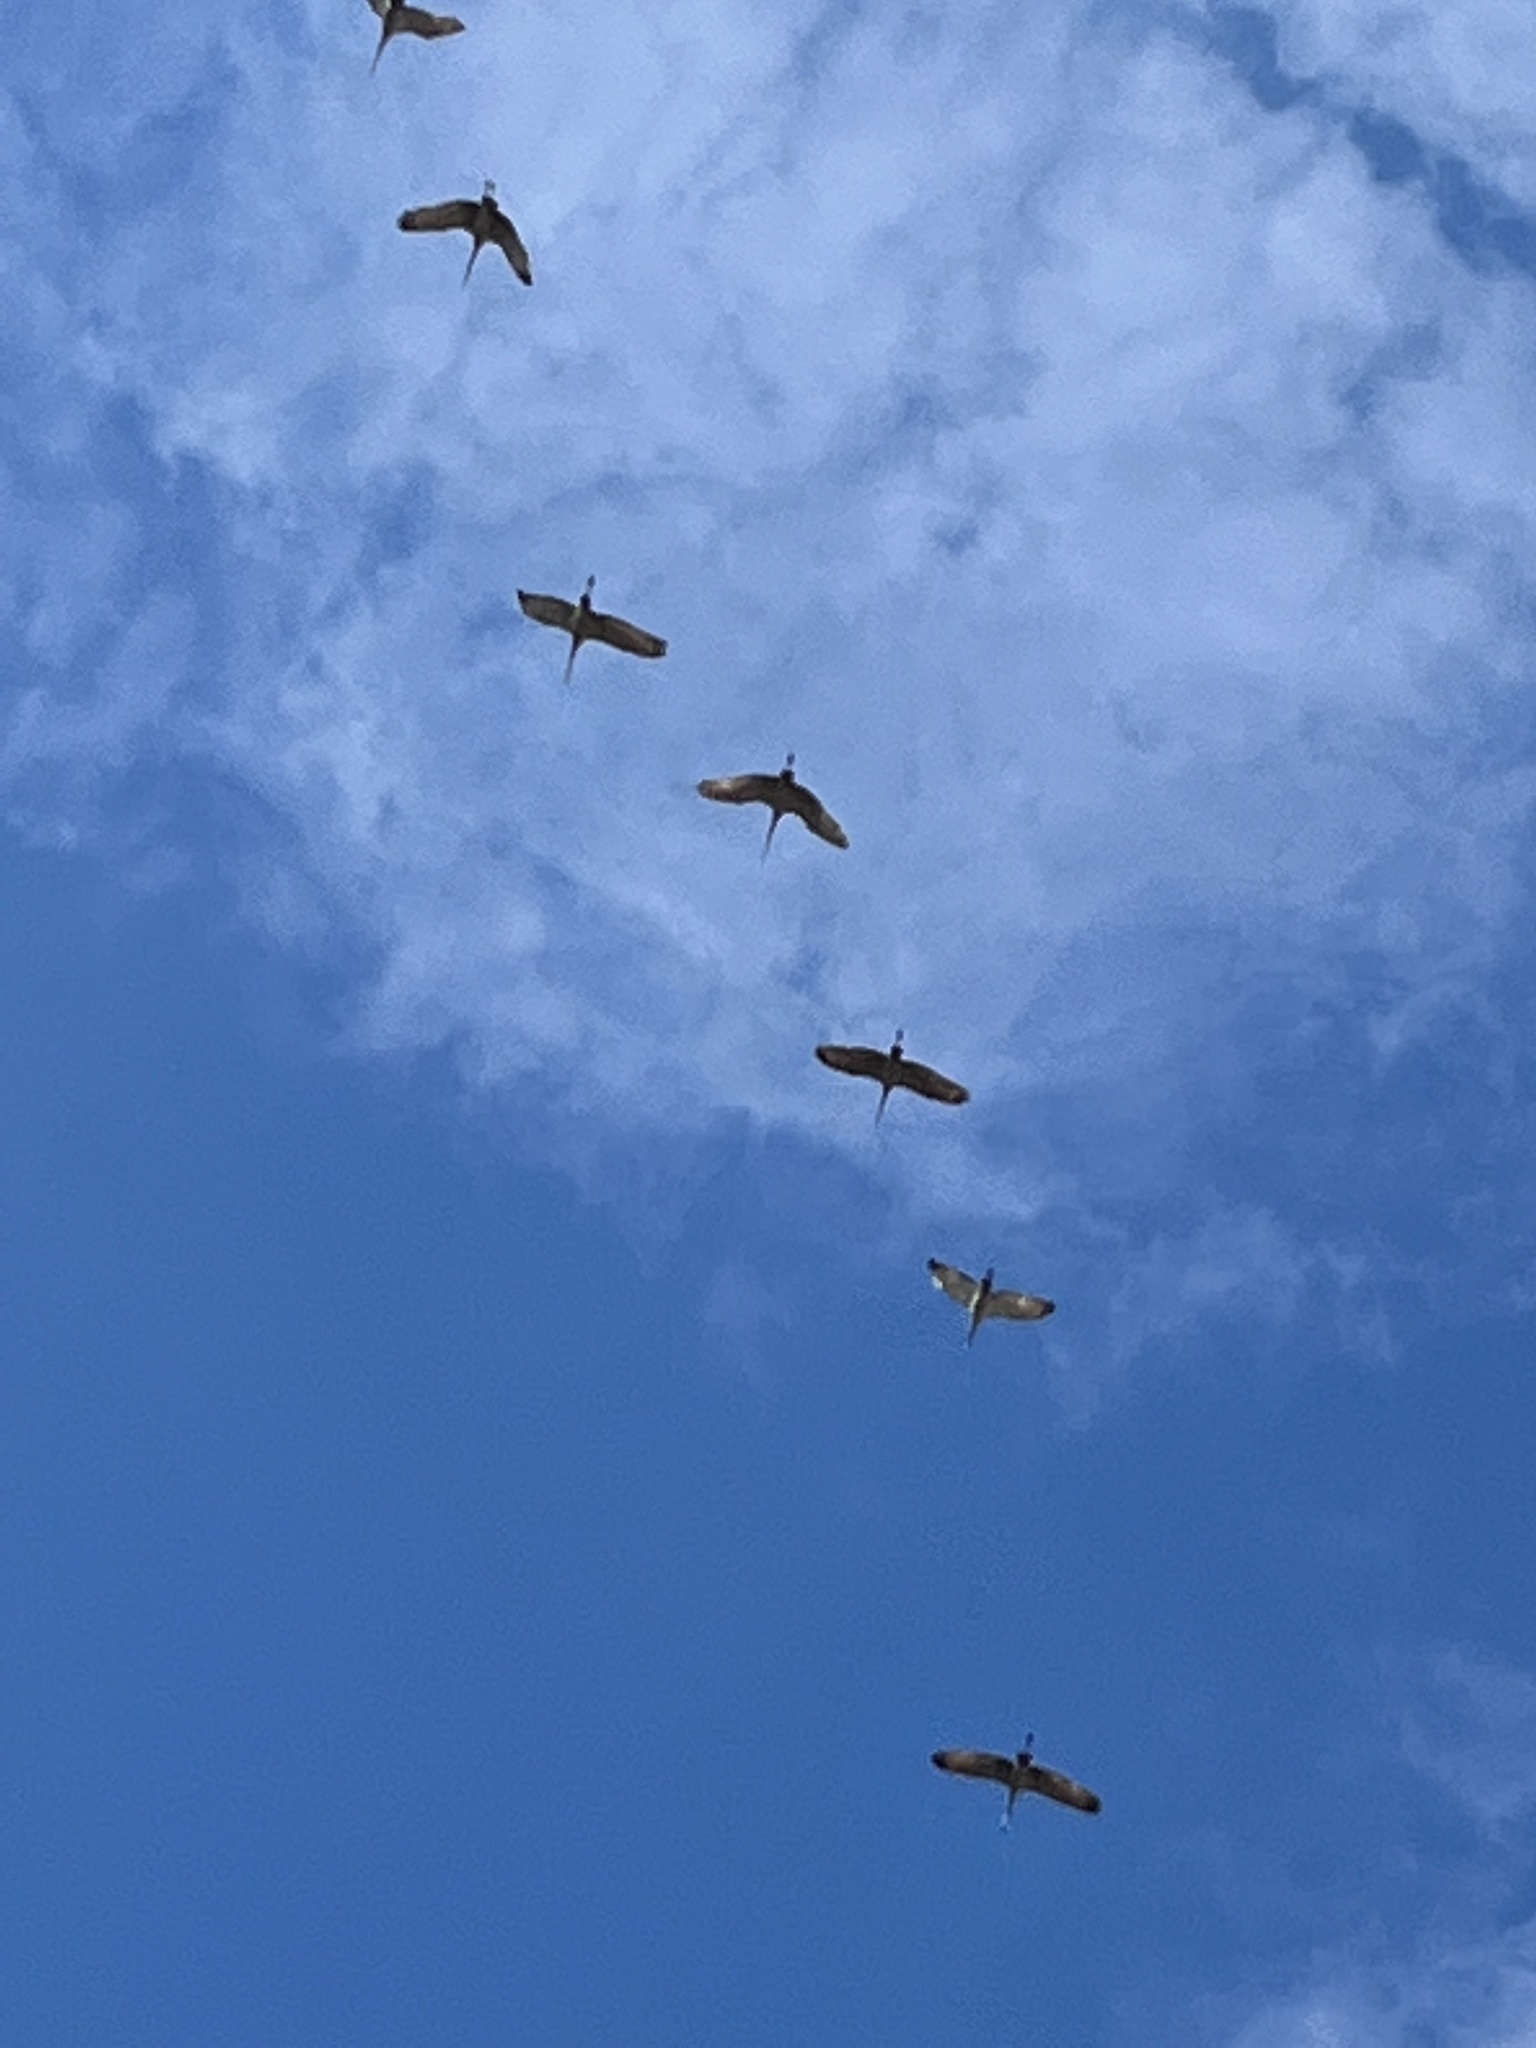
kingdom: Animalia
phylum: Chordata
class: Aves
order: Gruiformes
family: Gruidae
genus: Grus
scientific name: Grus canadensis
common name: Sandhill crane
